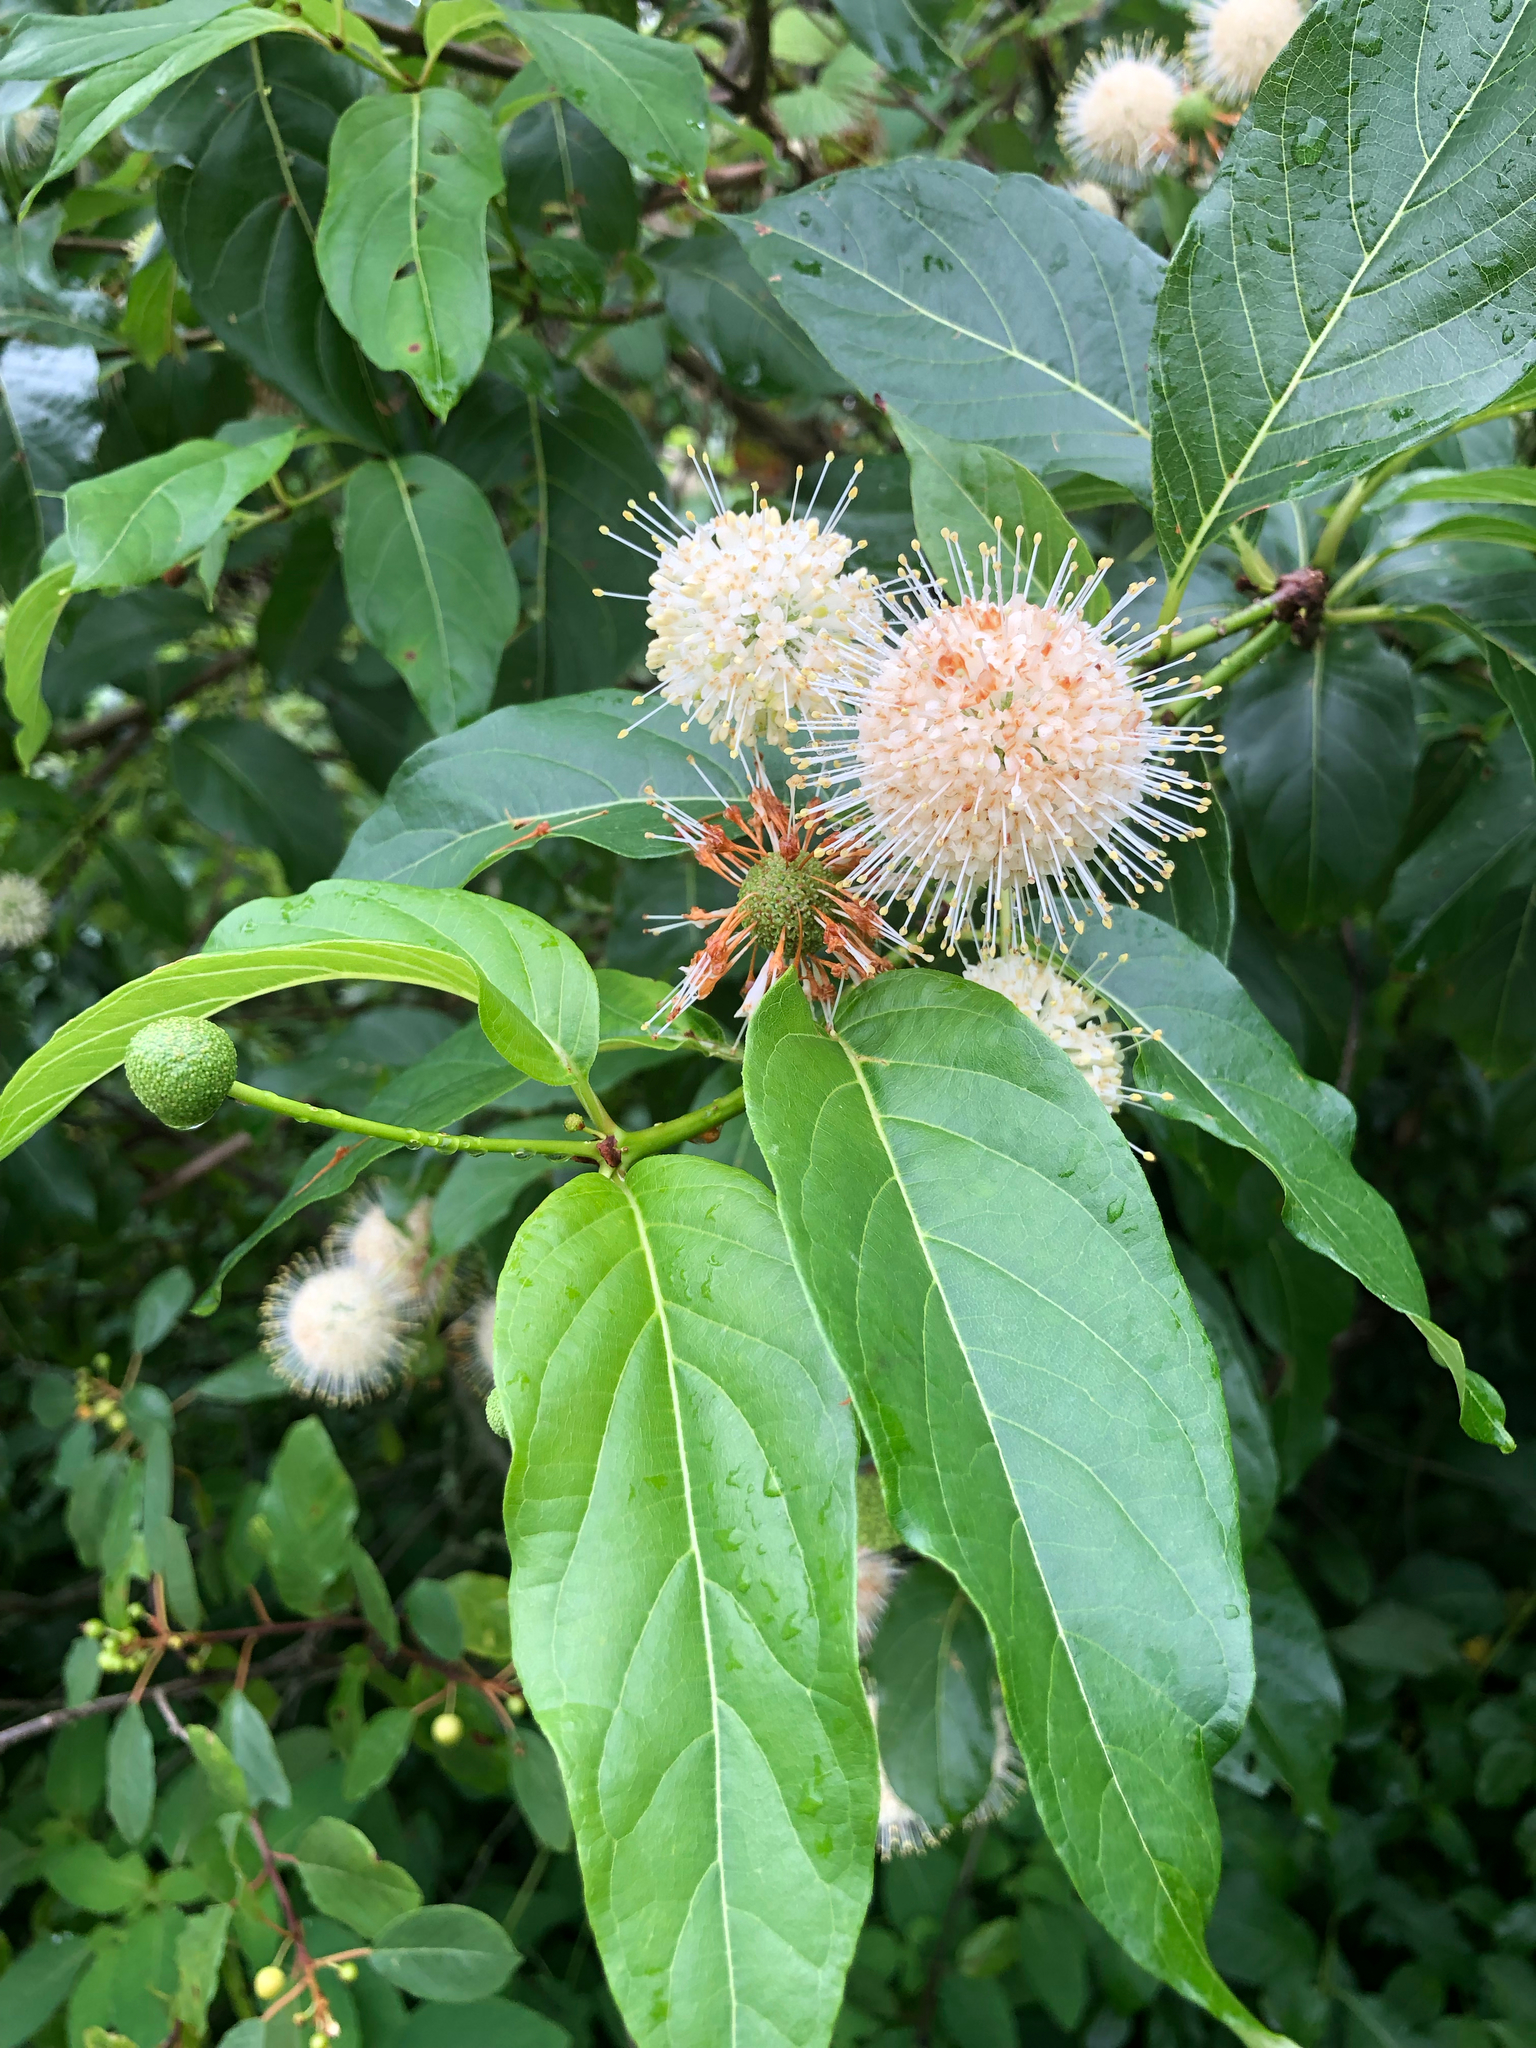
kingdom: Plantae
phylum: Tracheophyta
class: Magnoliopsida
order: Gentianales
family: Rubiaceae
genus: Cephalanthus
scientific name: Cephalanthus occidentalis
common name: Button-willow
